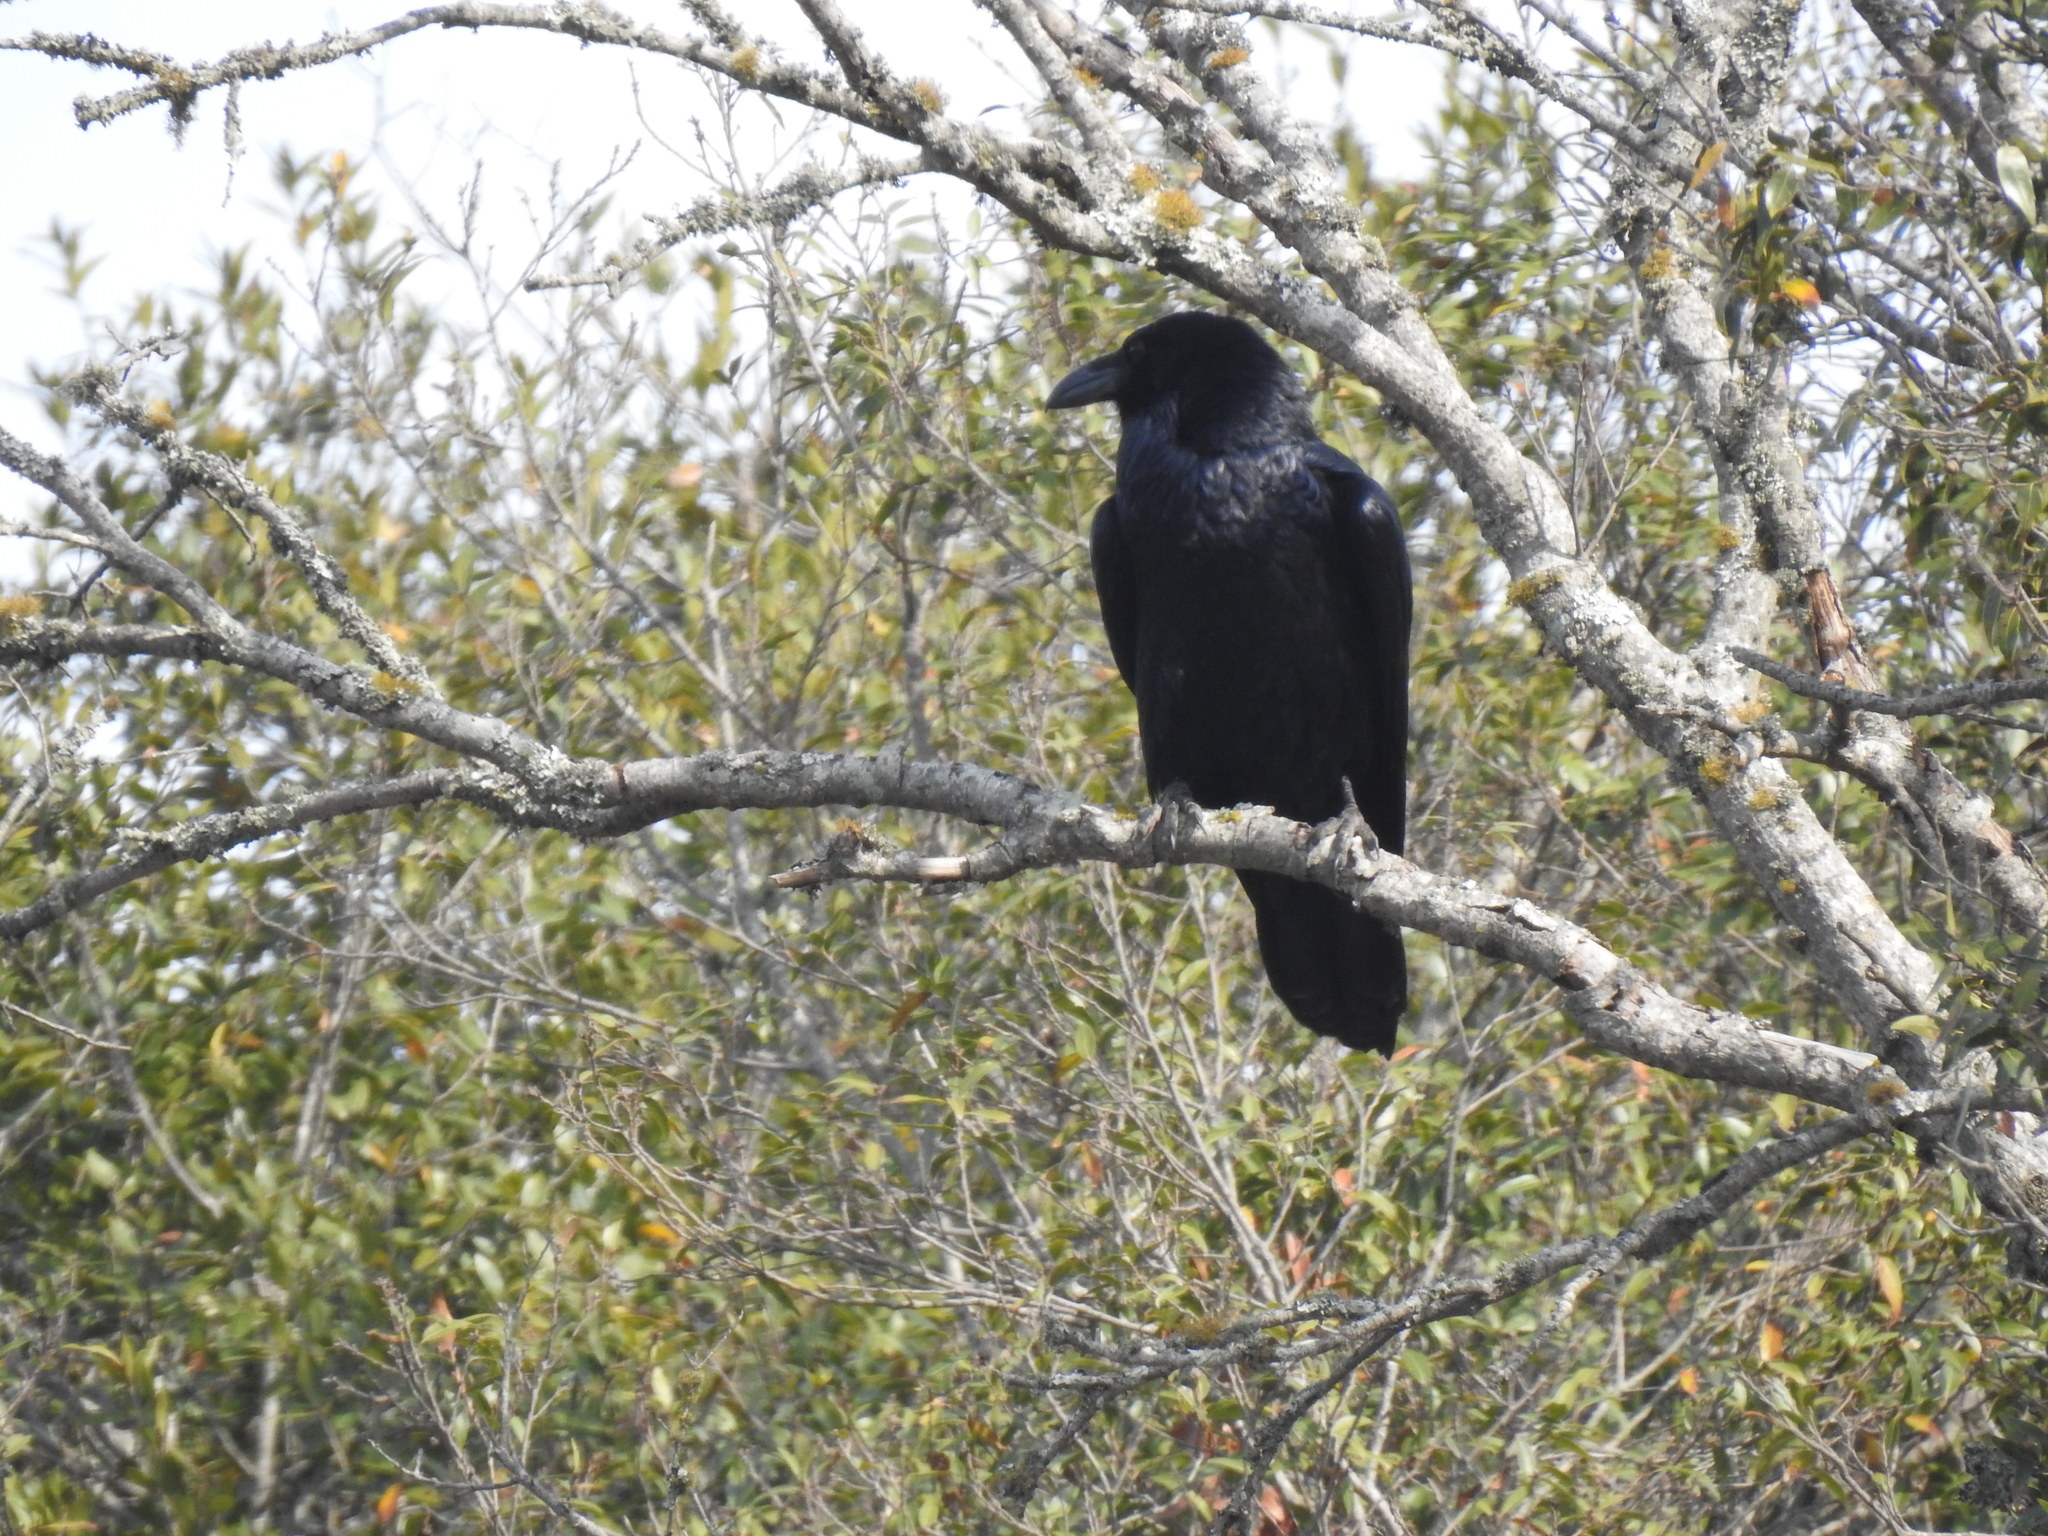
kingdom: Animalia
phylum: Chordata
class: Aves
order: Passeriformes
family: Corvidae
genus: Corvus
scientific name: Corvus corax
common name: Common raven
